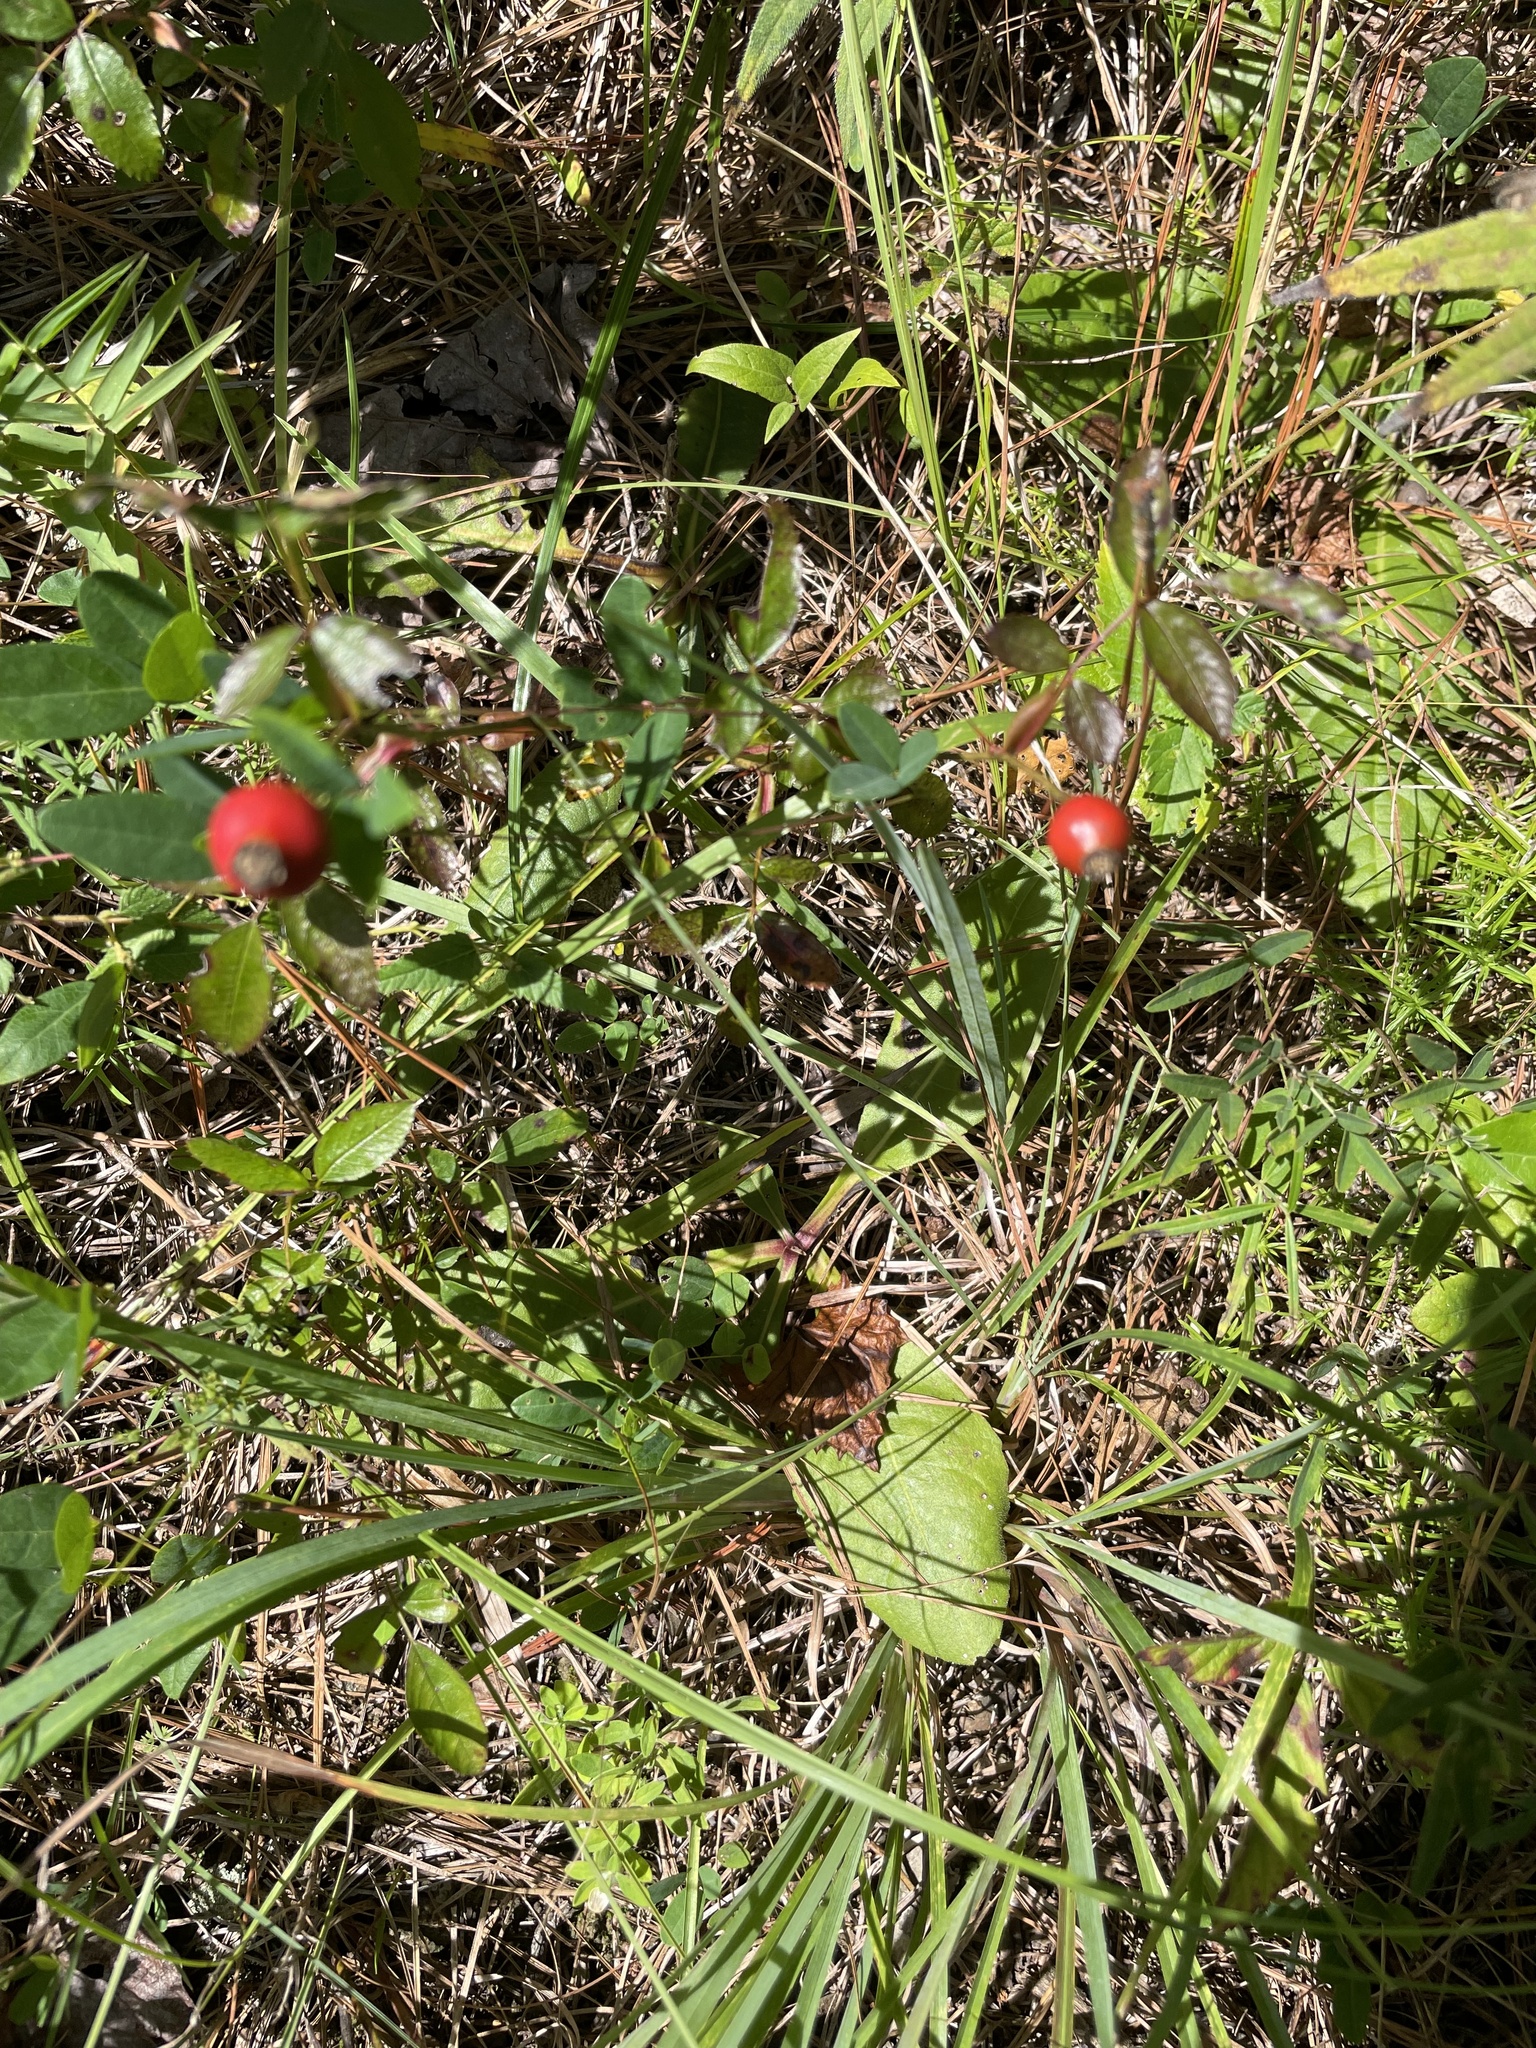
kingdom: Plantae
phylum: Tracheophyta
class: Magnoliopsida
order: Rosales
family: Rosaceae
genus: Rosa
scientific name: Rosa carolina
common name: Pasture rose
